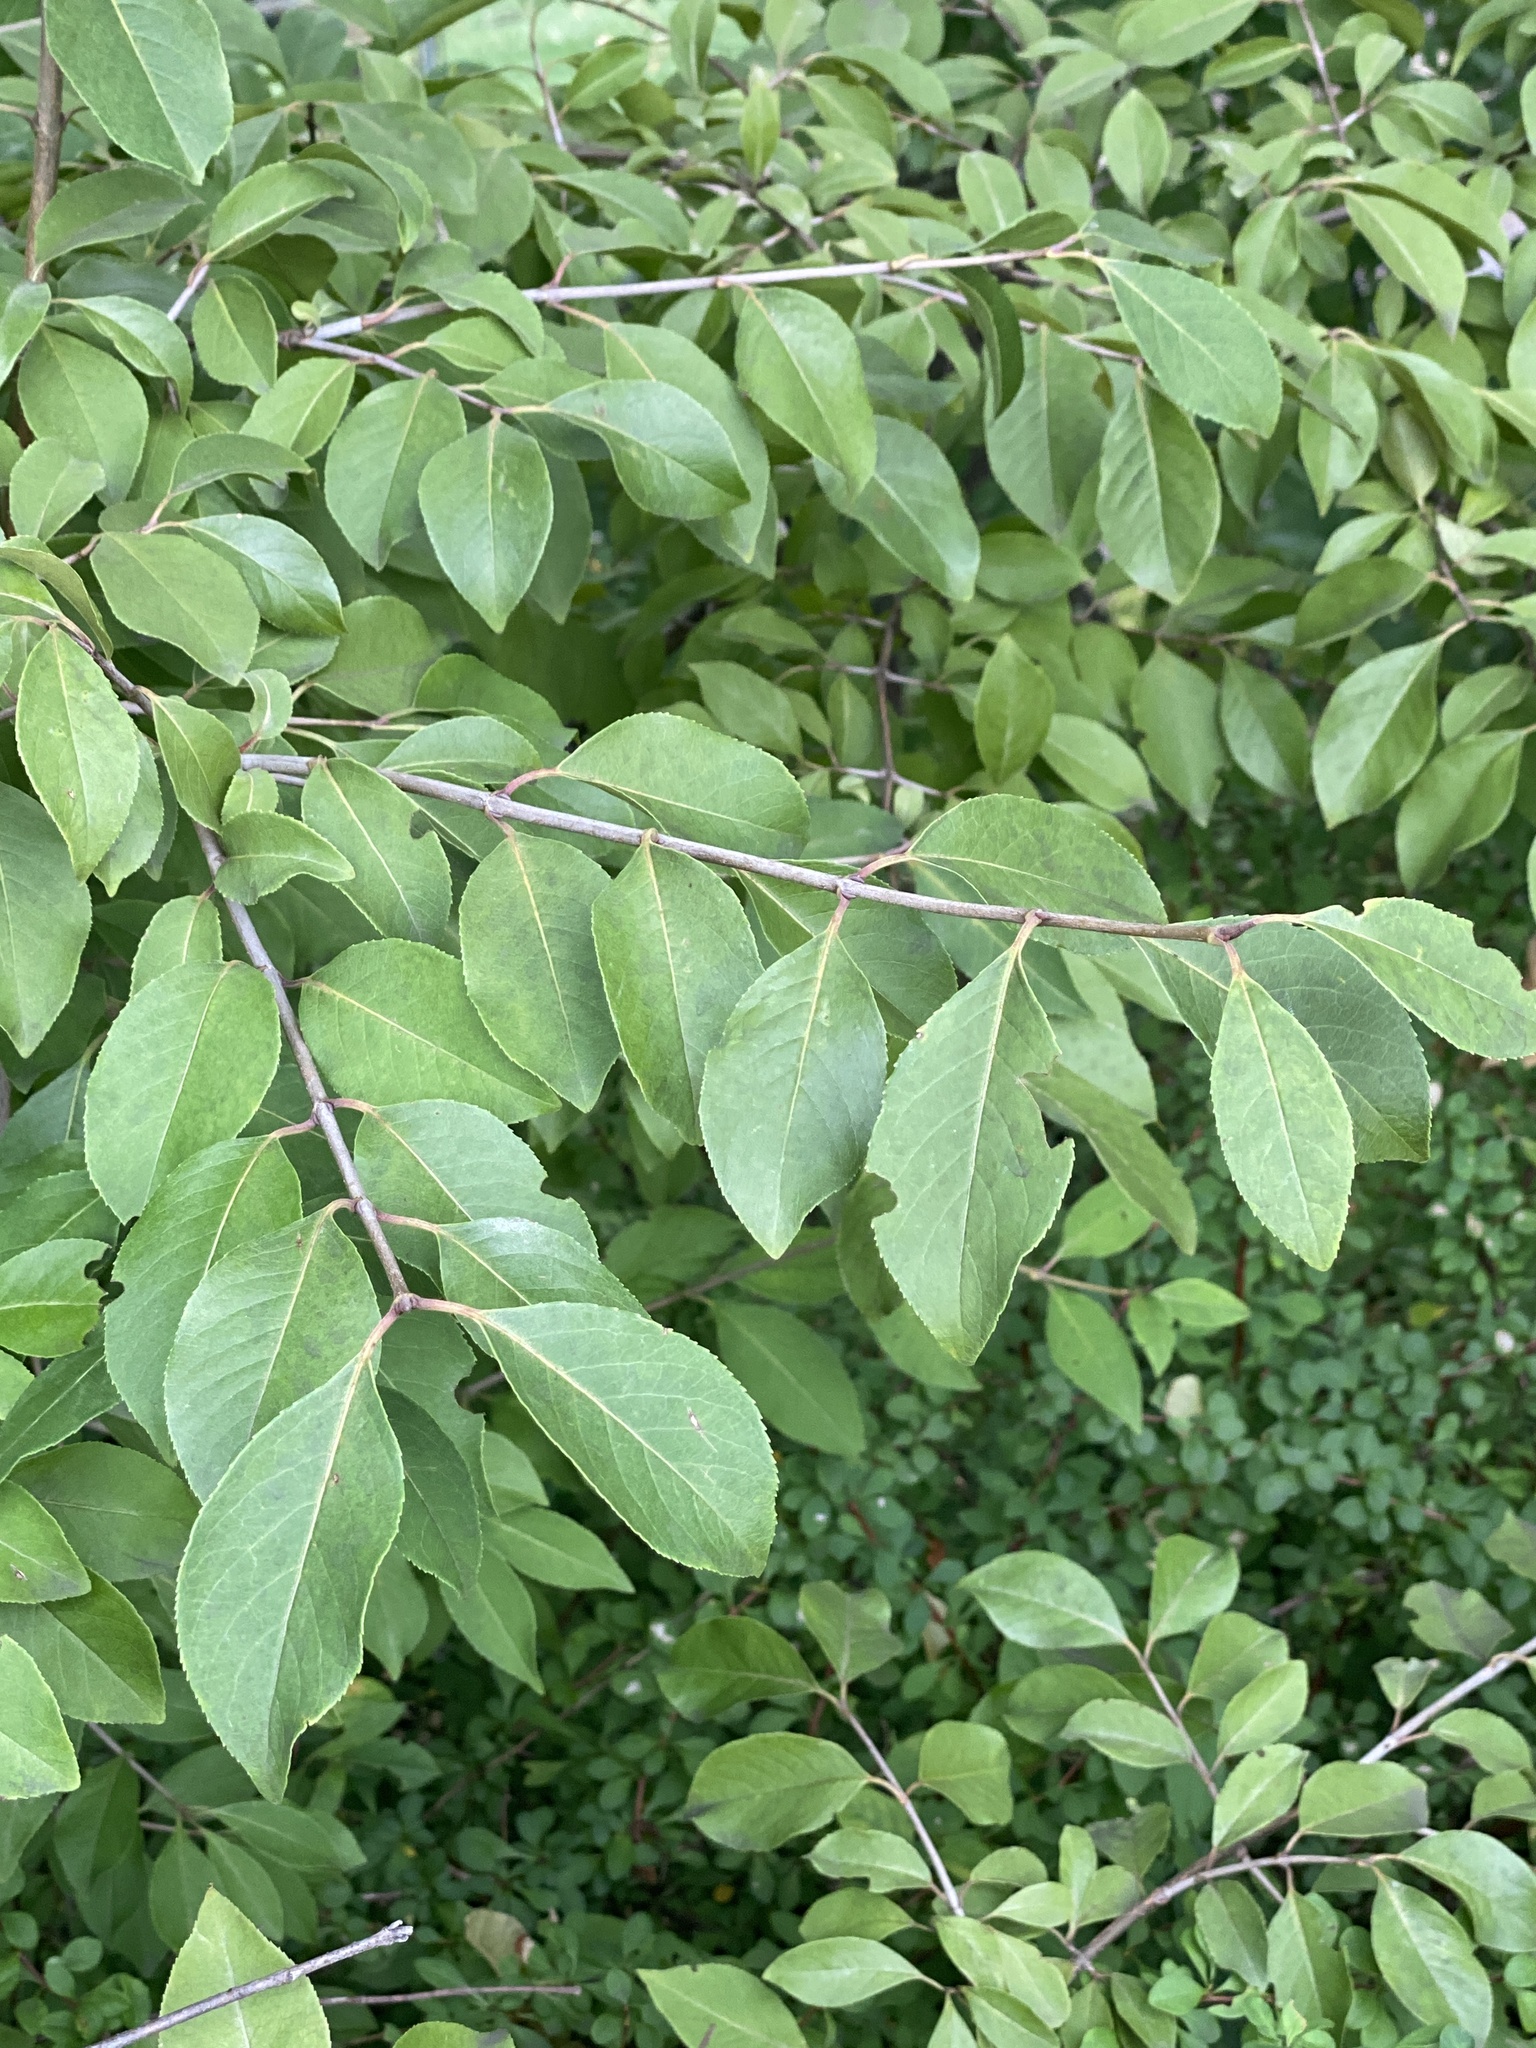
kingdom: Plantae
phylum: Tracheophyta
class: Magnoliopsida
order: Dipsacales
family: Viburnaceae
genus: Viburnum
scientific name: Viburnum prunifolium
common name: Black haw
